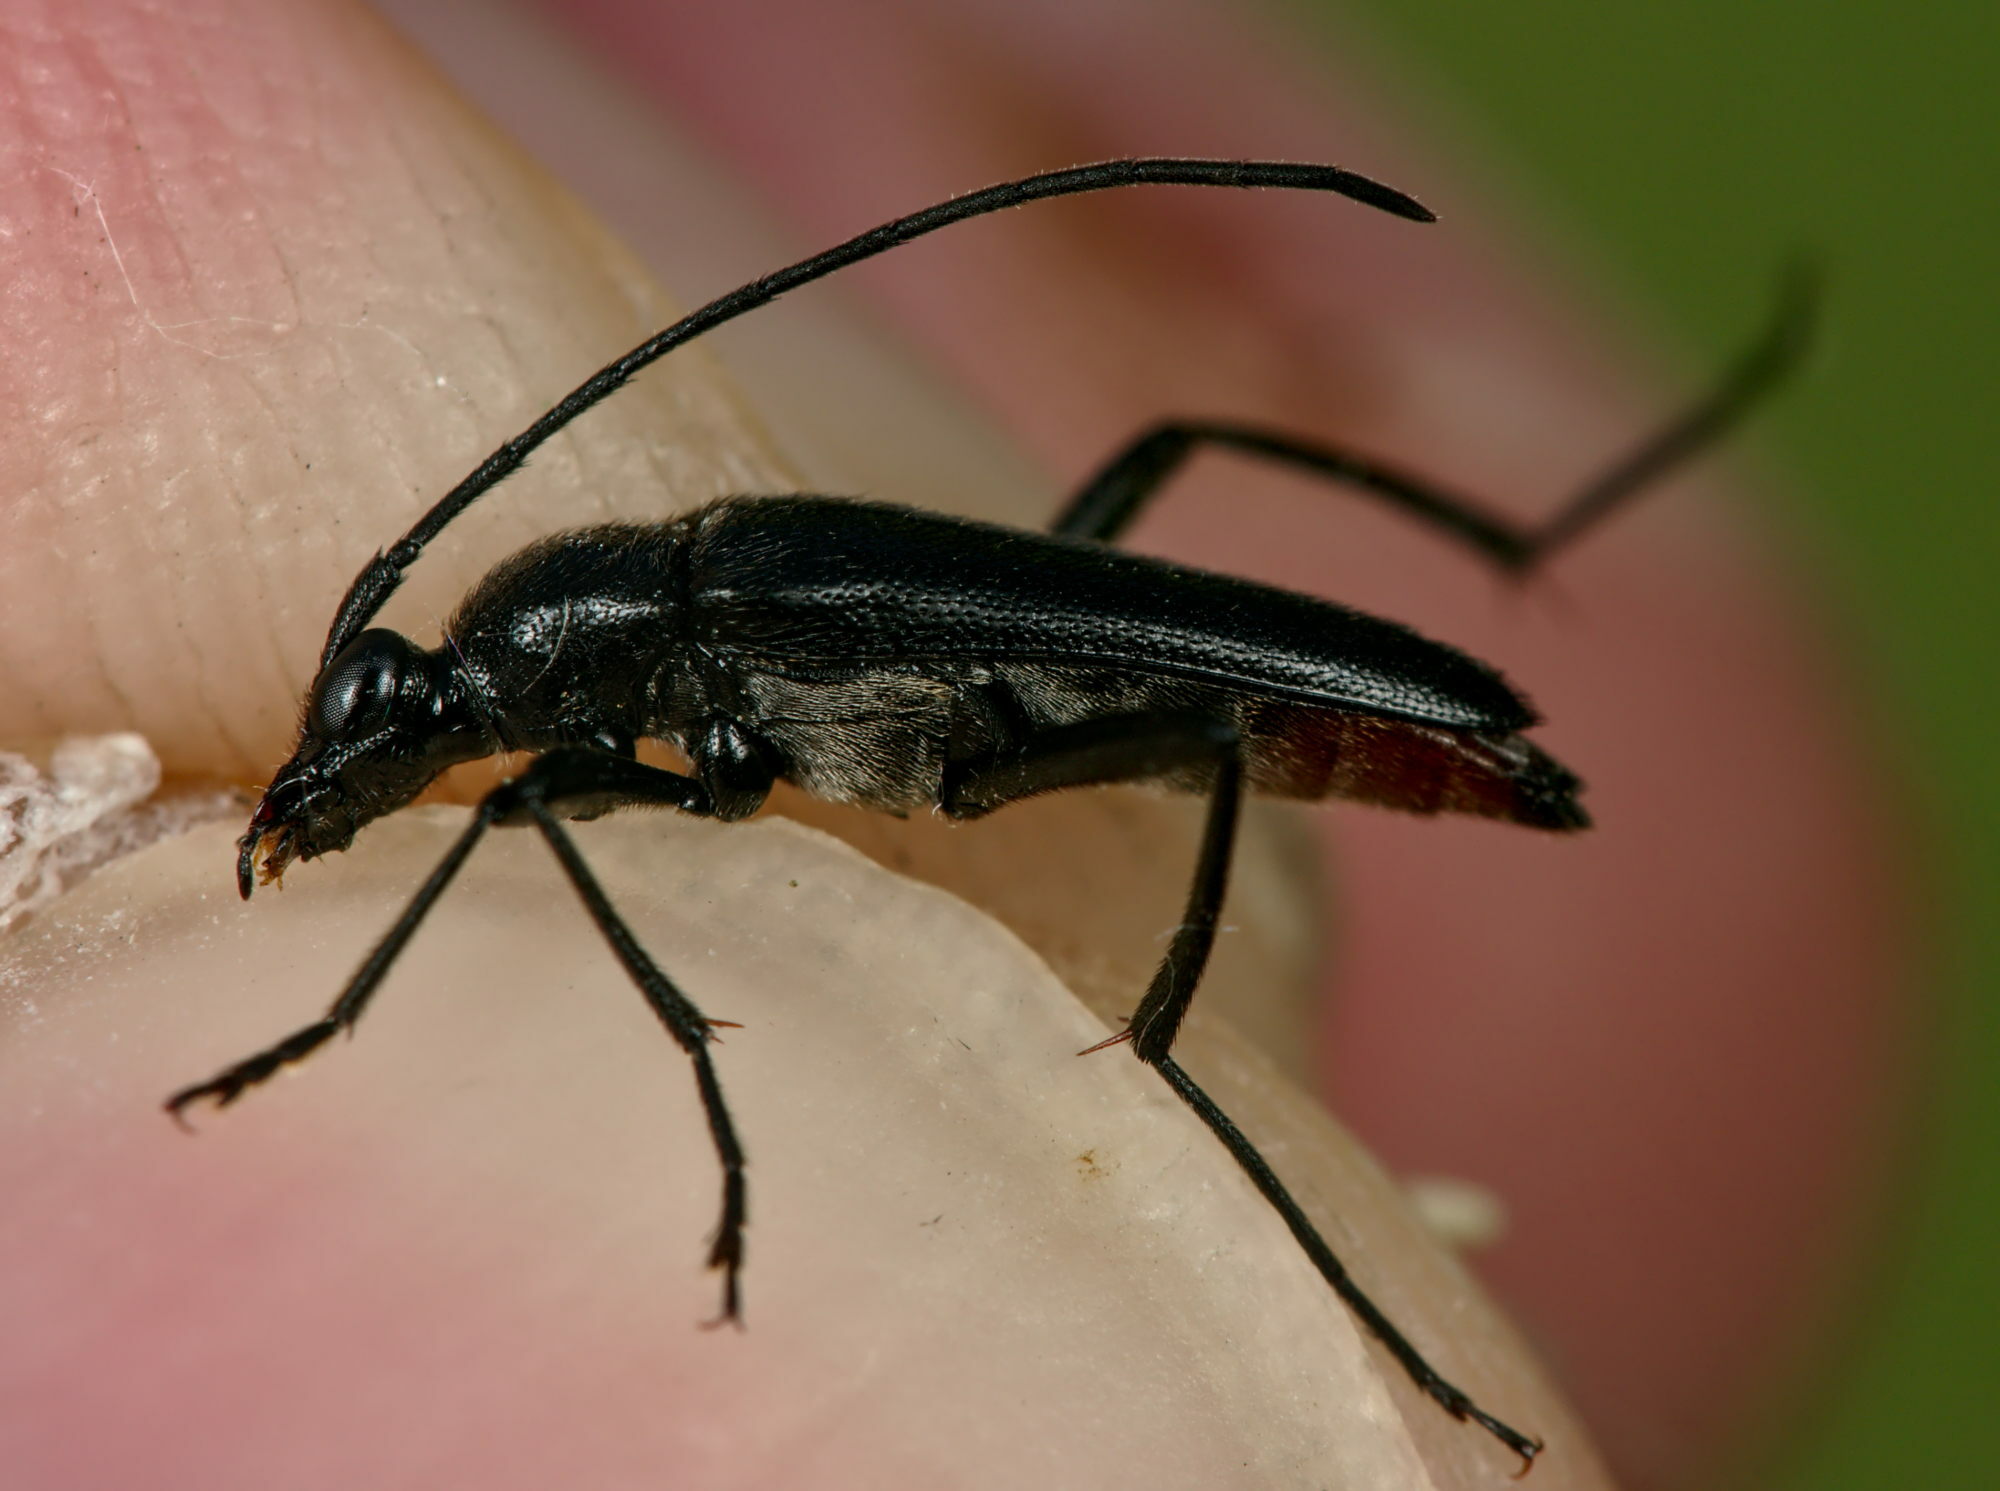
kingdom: Animalia
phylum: Arthropoda
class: Insecta
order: Coleoptera
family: Cerambycidae
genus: Stenurella
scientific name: Stenurella melanura
